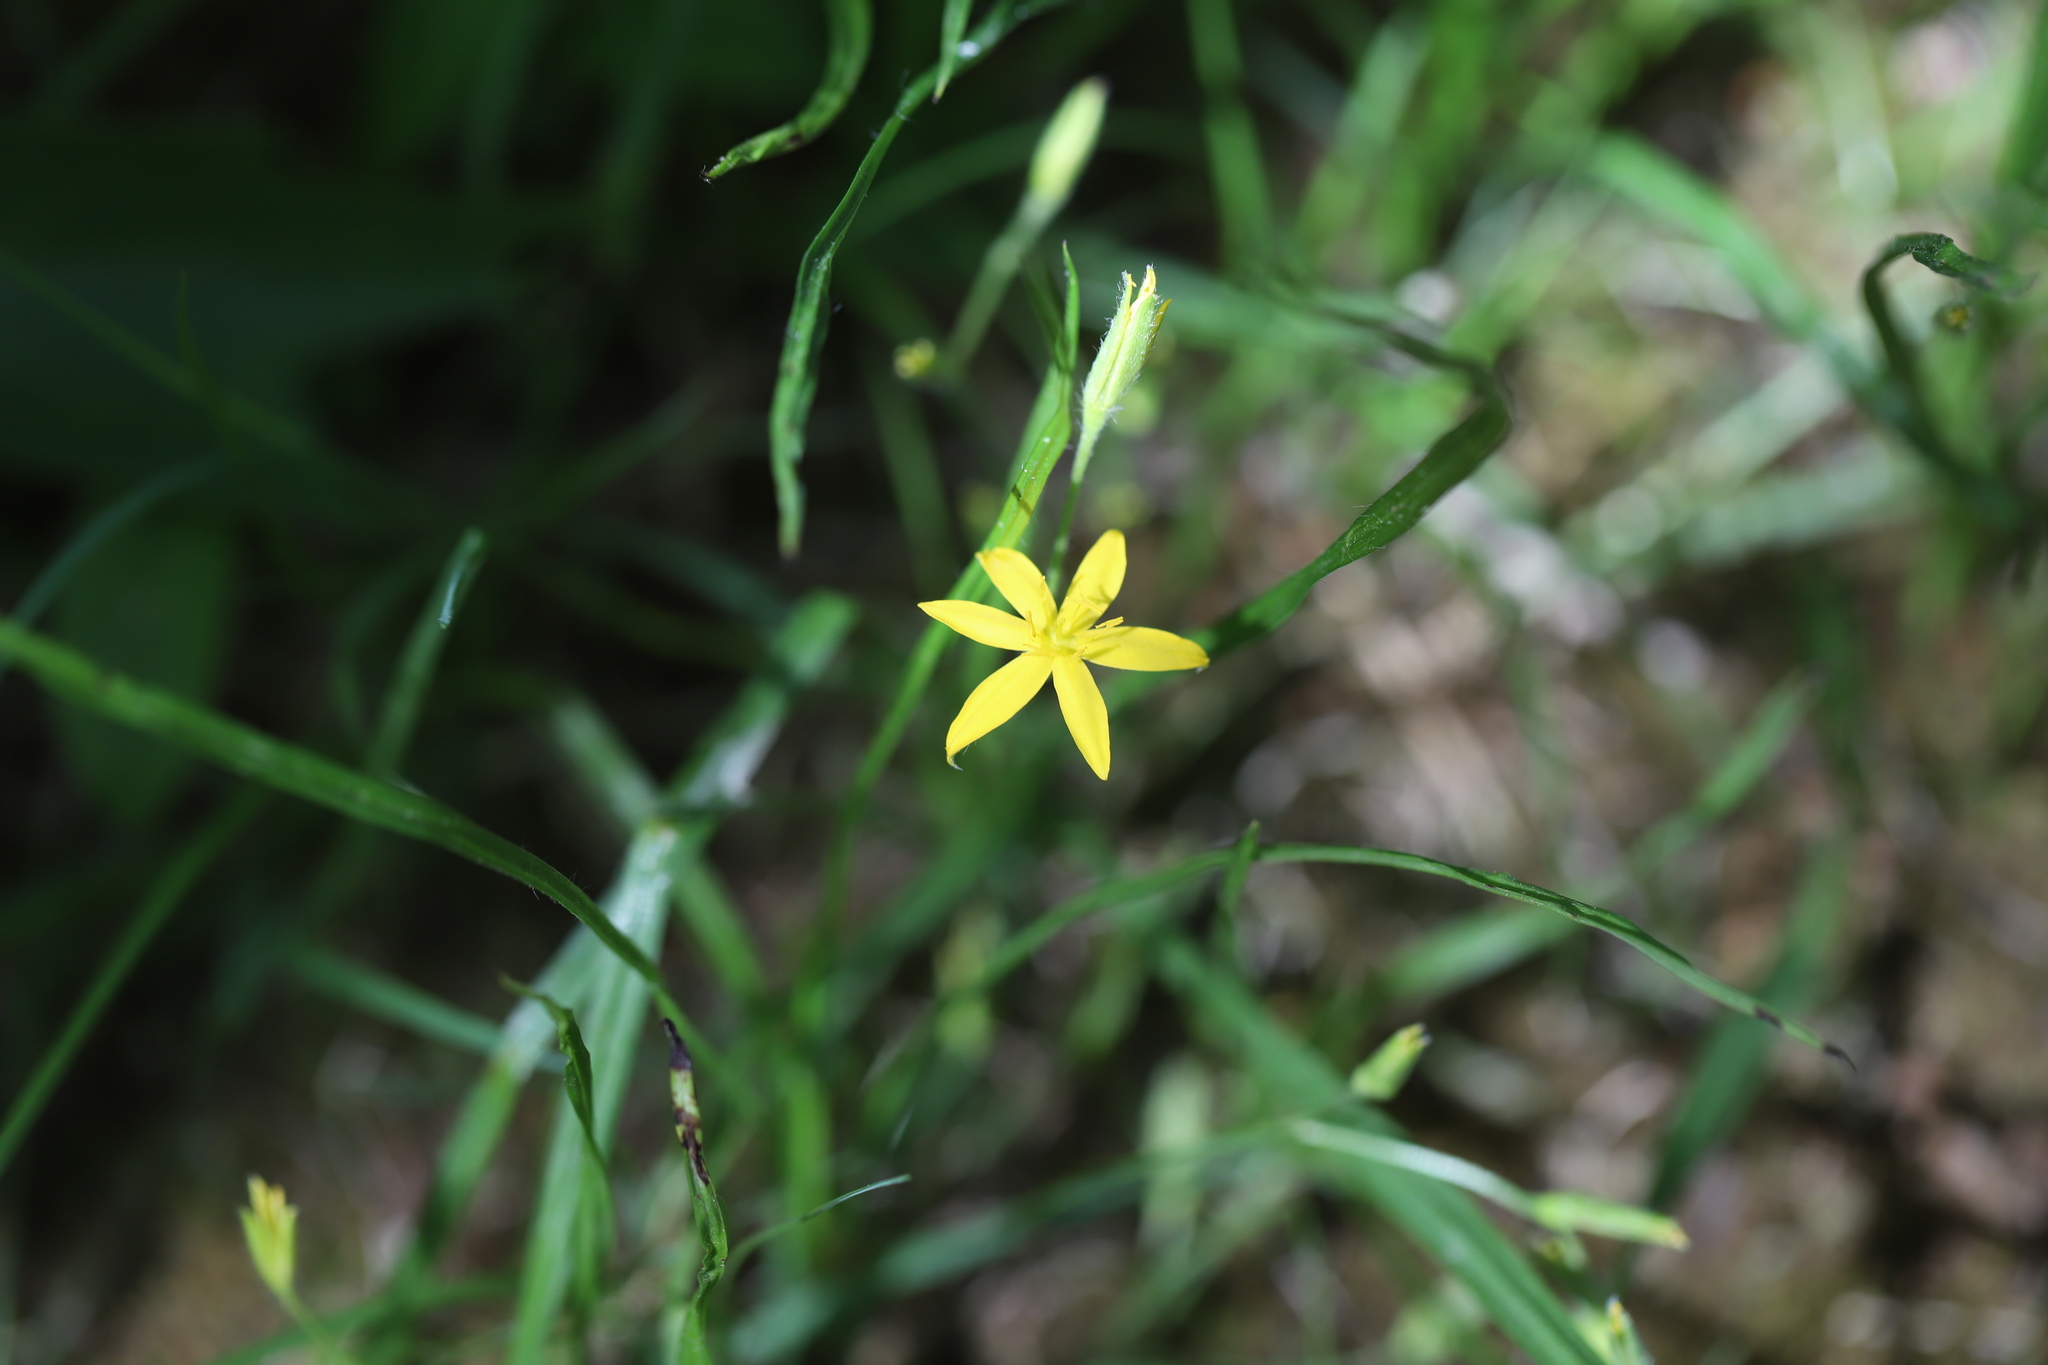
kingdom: Plantae
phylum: Tracheophyta
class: Liliopsida
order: Asparagales
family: Hypoxidaceae
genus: Hypoxis
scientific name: Hypoxis hirsuta
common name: Common goldstar
